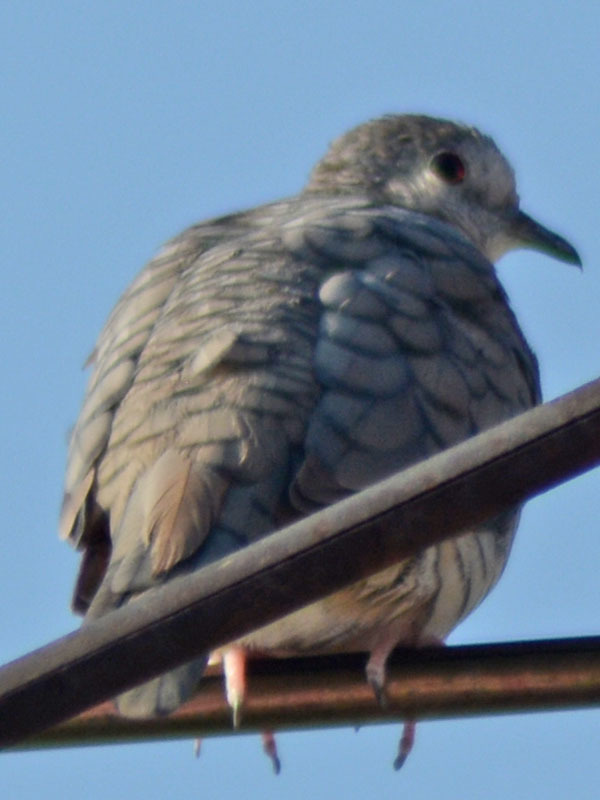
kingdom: Animalia
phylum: Chordata
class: Aves
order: Columbiformes
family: Columbidae
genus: Columbina
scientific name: Columbina inca
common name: Inca dove
